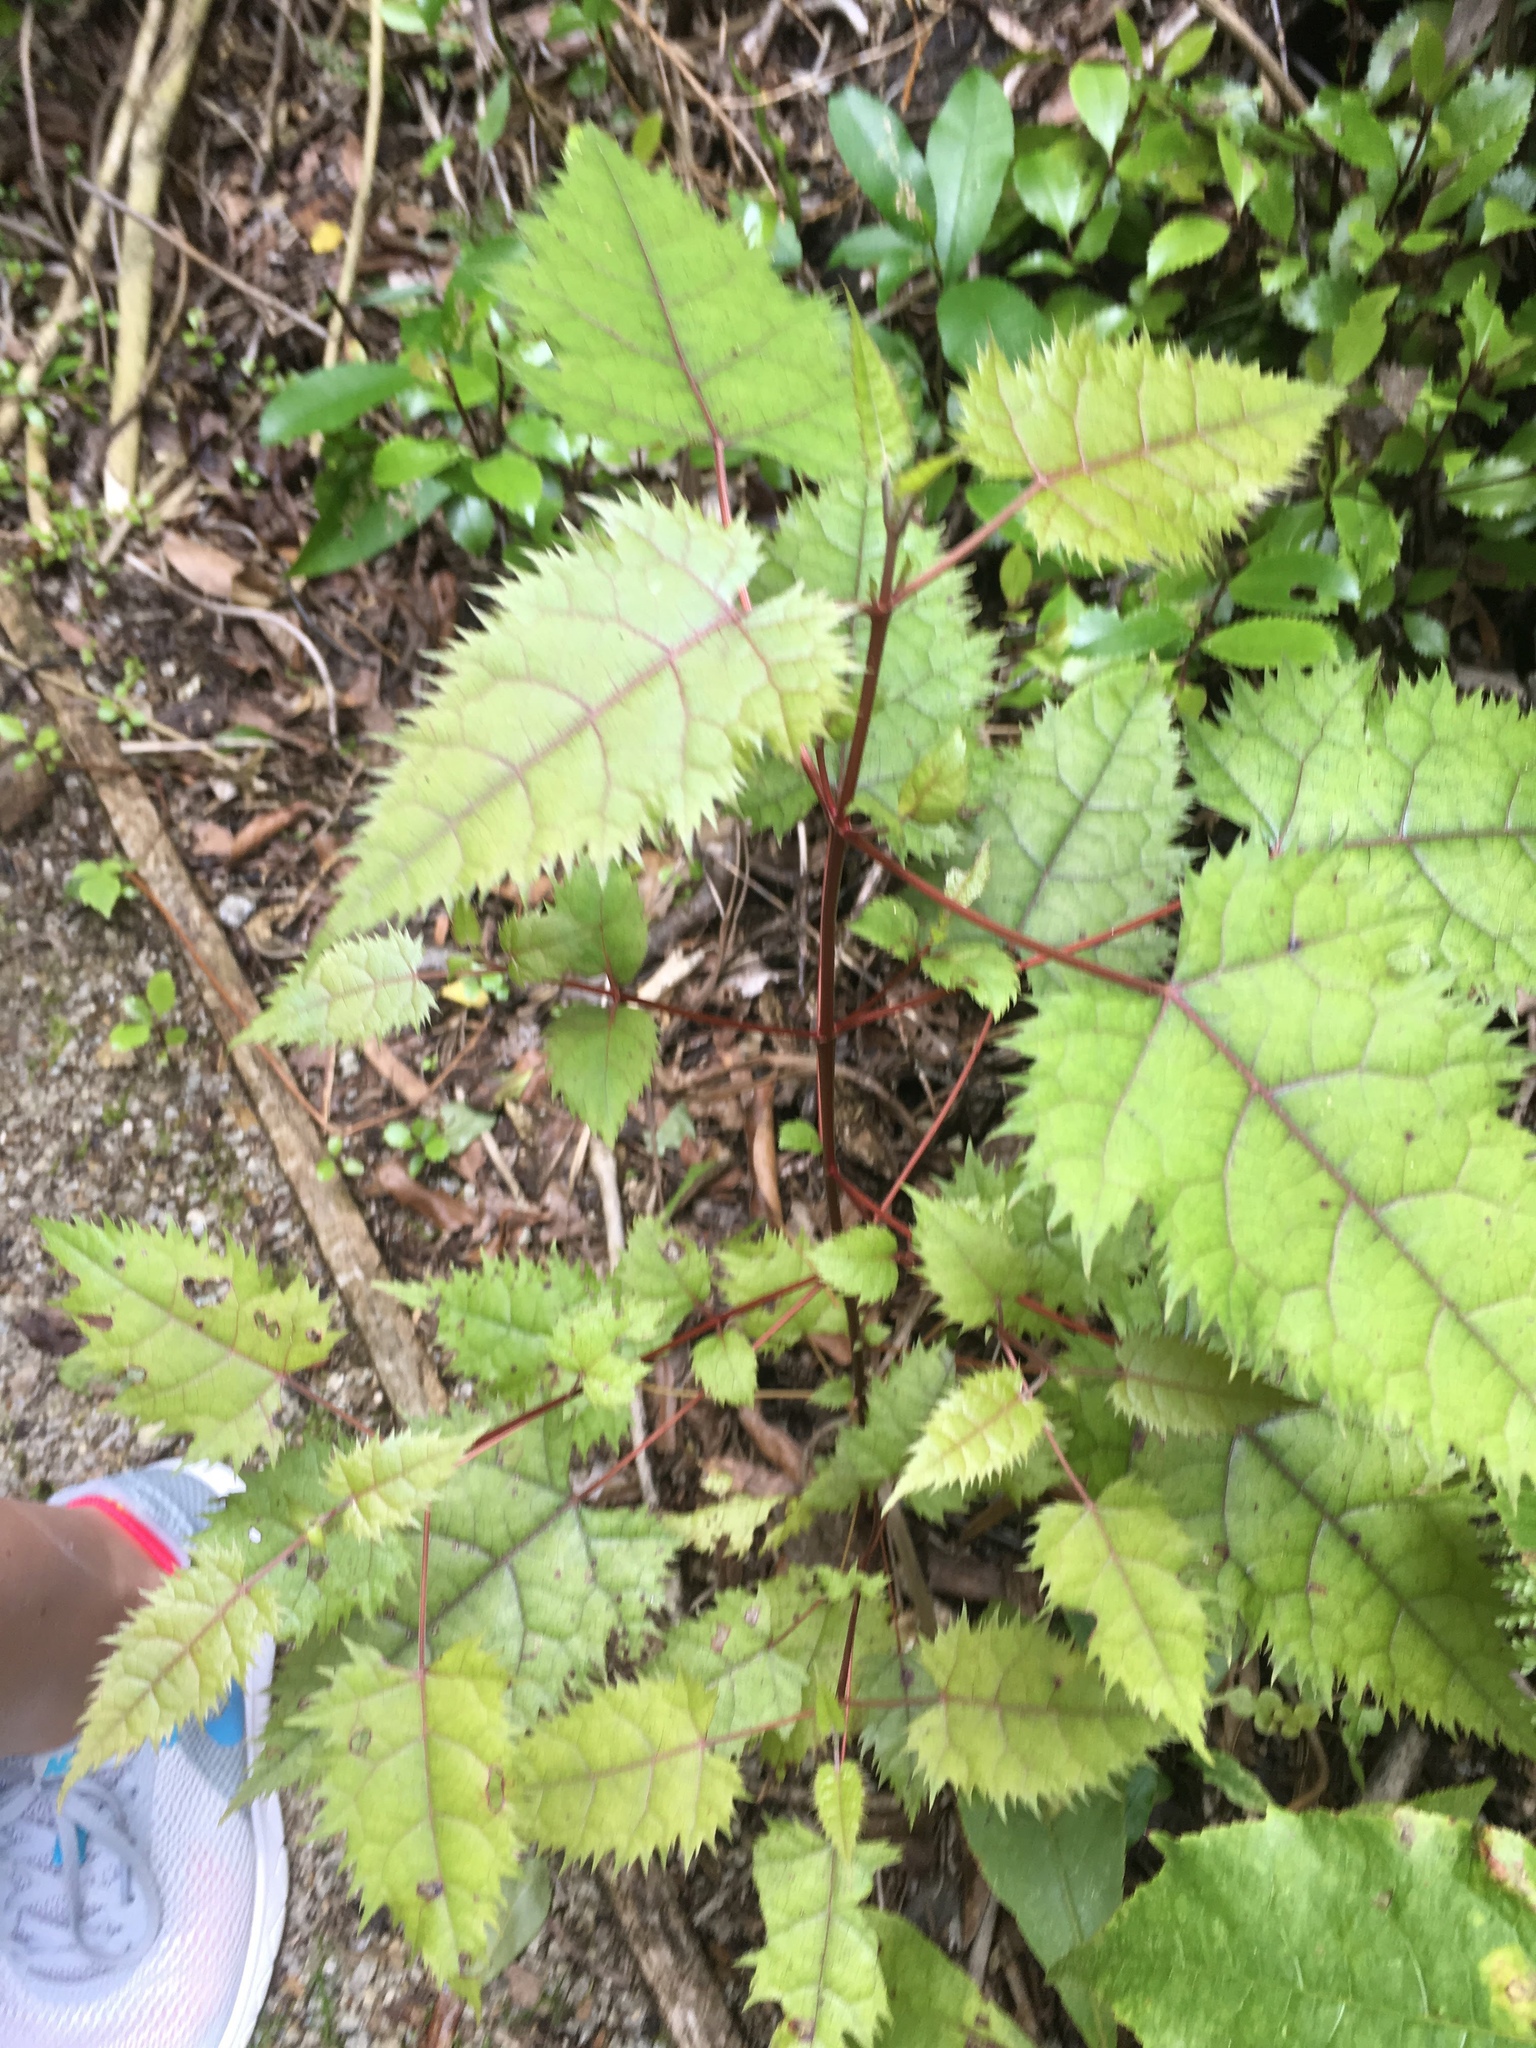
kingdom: Plantae
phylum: Tracheophyta
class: Magnoliopsida
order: Oxalidales
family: Elaeocarpaceae
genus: Aristotelia
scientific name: Aristotelia serrata
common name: New zealand wineberry
